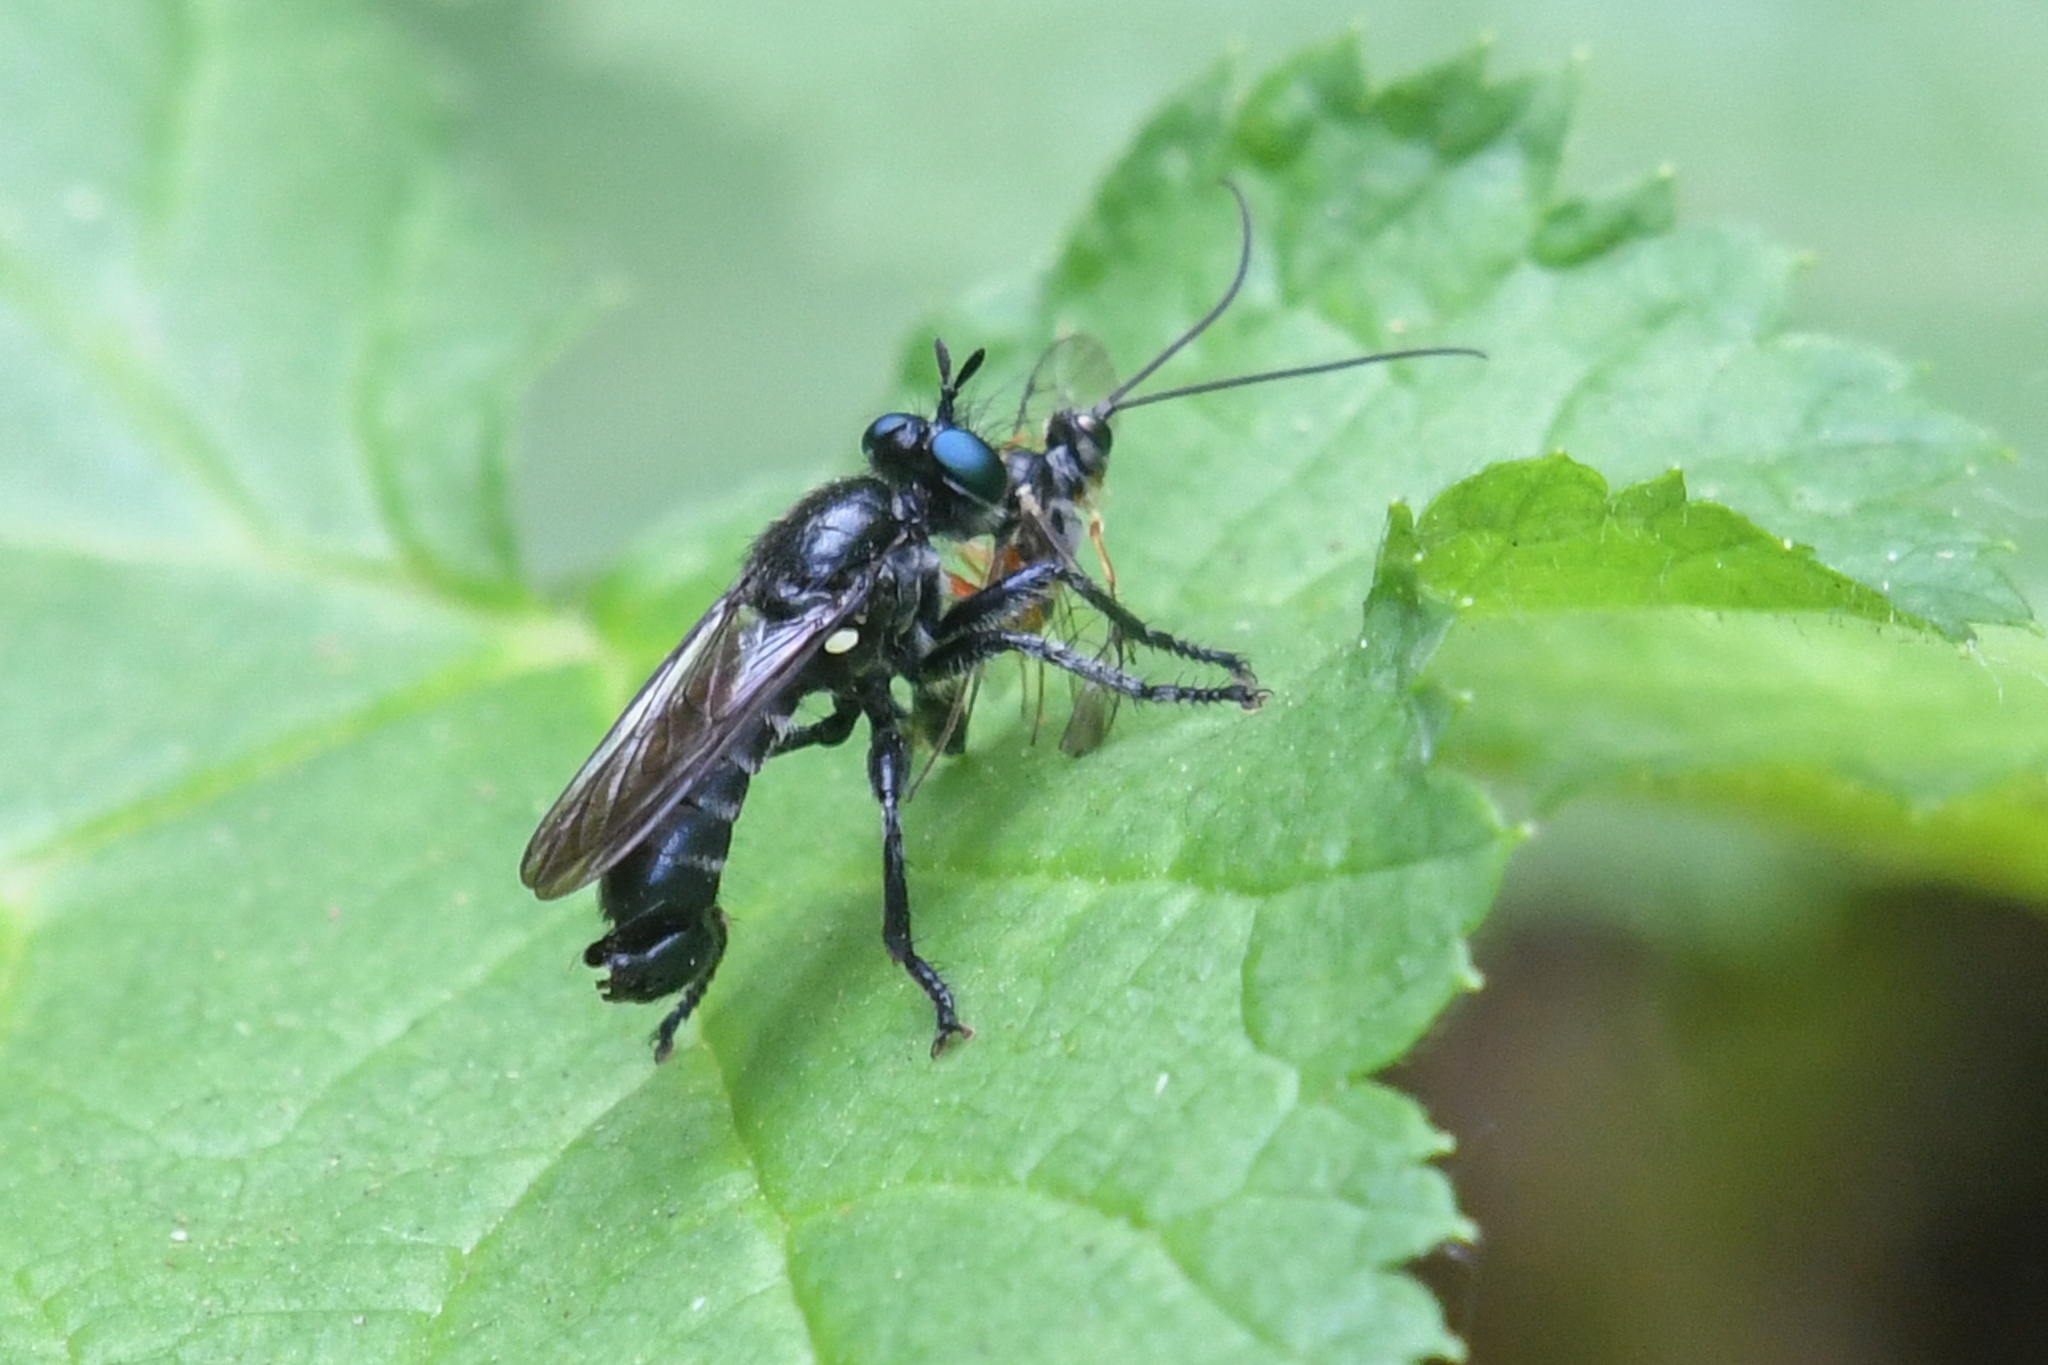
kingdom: Animalia
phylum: Arthropoda
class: Insecta
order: Diptera
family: Asilidae
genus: Laphria
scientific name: Laphria franciscana
